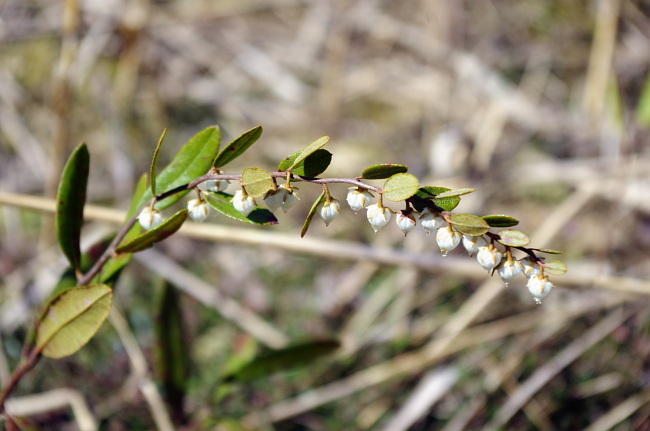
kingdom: Plantae
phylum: Tracheophyta
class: Magnoliopsida
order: Ericales
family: Ericaceae
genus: Chamaedaphne
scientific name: Chamaedaphne calyculata
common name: Leatherleaf
